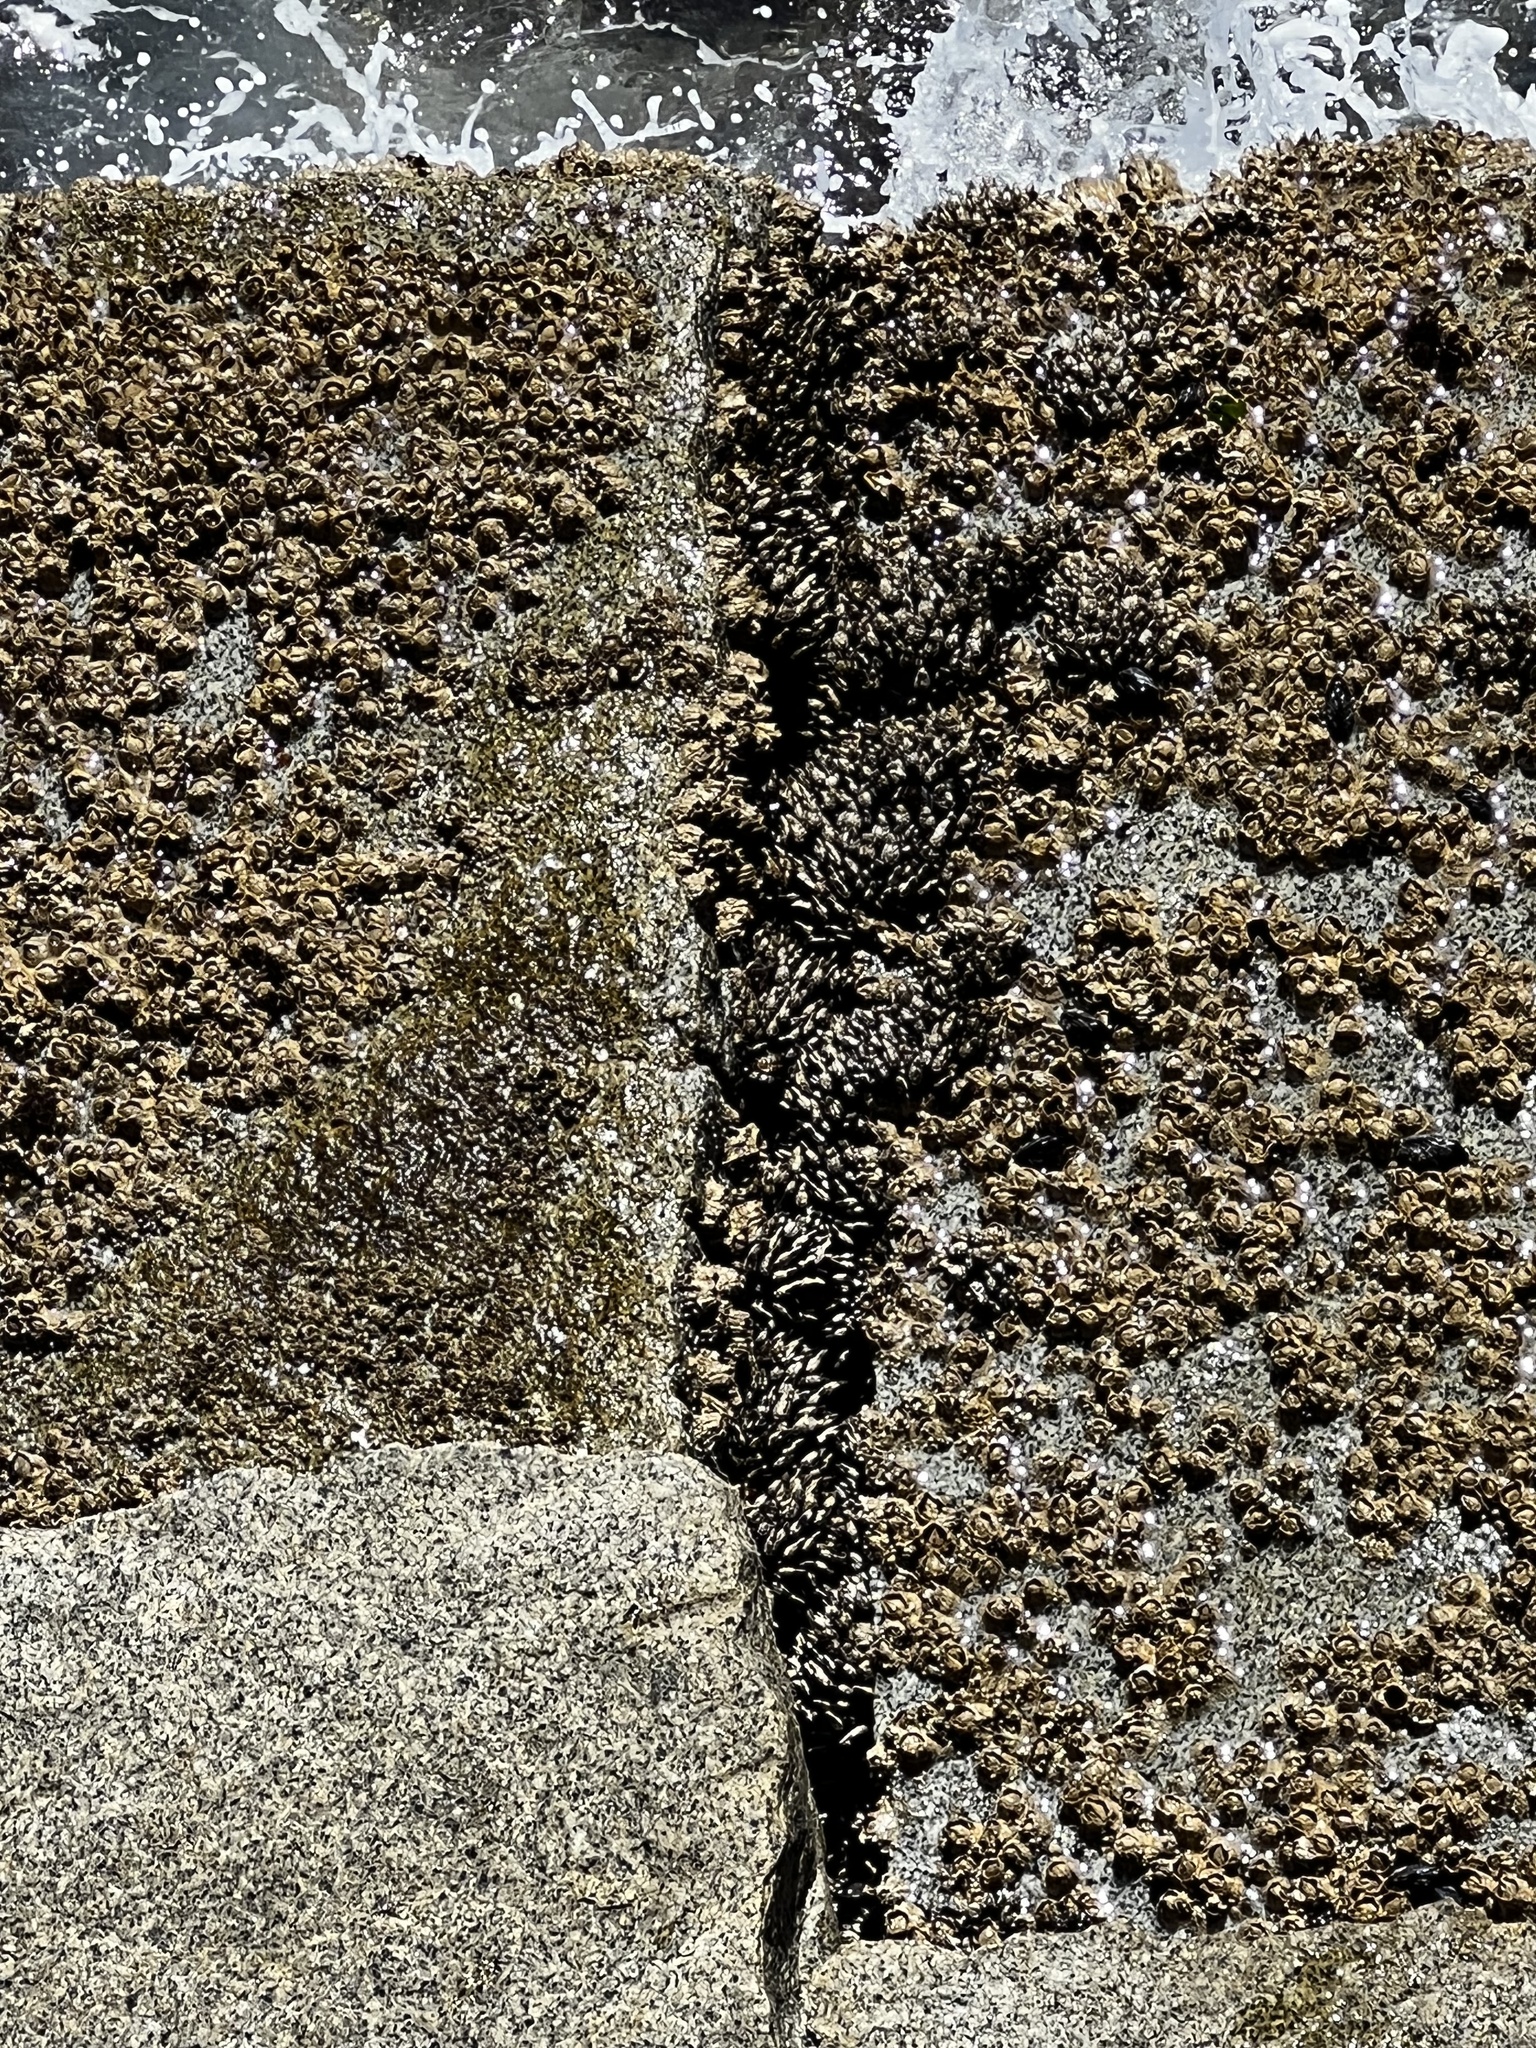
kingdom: Animalia
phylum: Arthropoda
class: Maxillopoda
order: Pedunculata
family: Pollicipedidae
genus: Pollicipes
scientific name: Pollicipes polymerus
